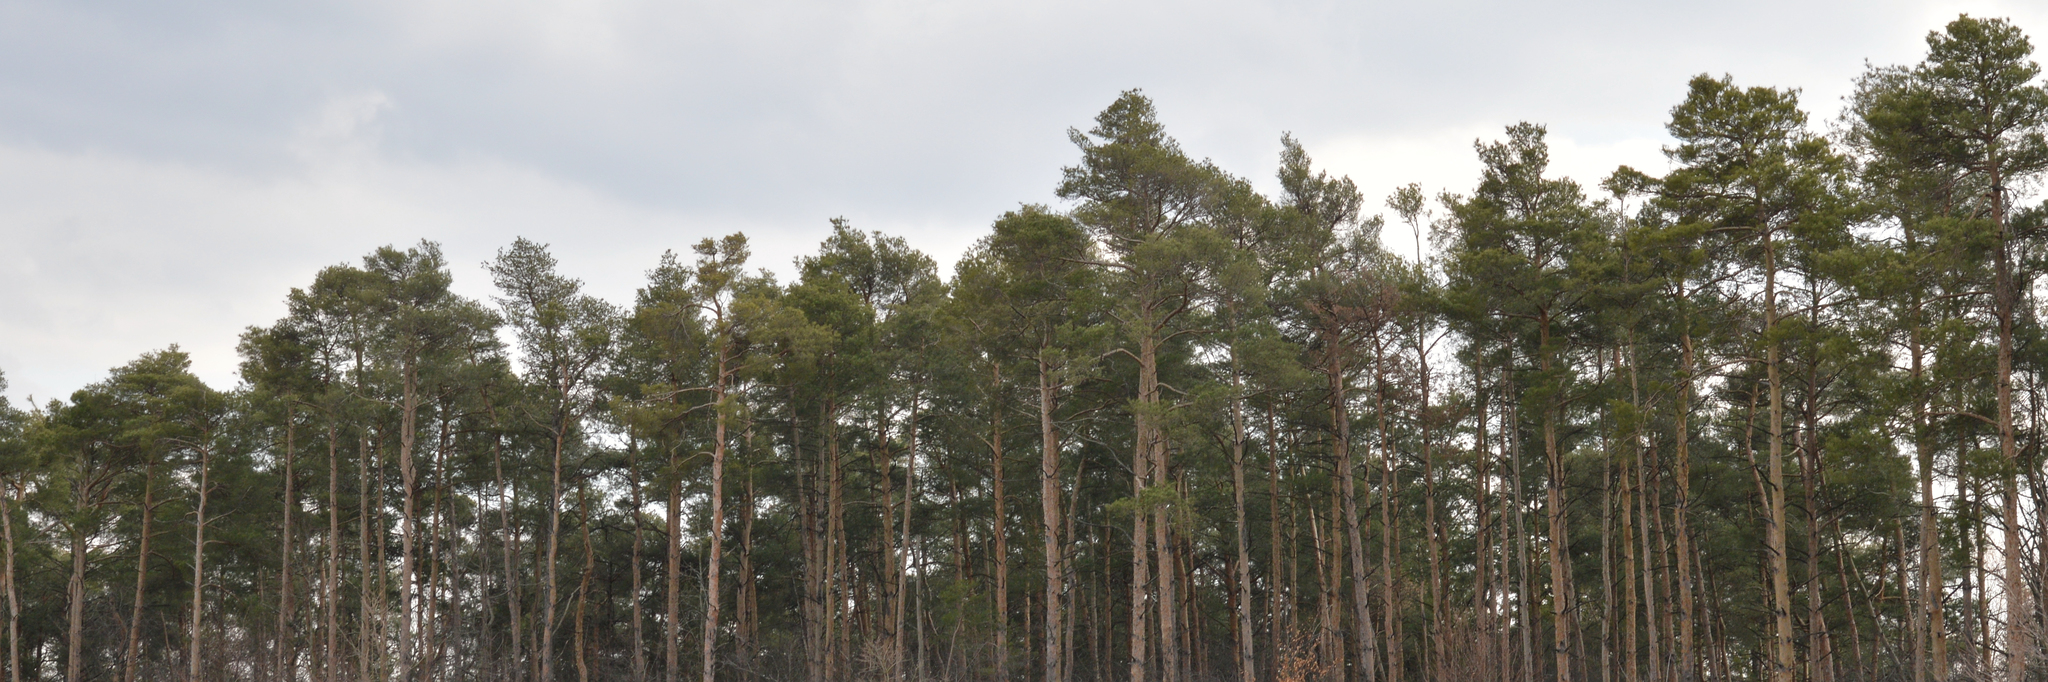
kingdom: Plantae
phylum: Tracheophyta
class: Pinopsida
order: Pinales
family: Pinaceae
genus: Pinus
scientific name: Pinus sylvestris
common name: Scots pine
